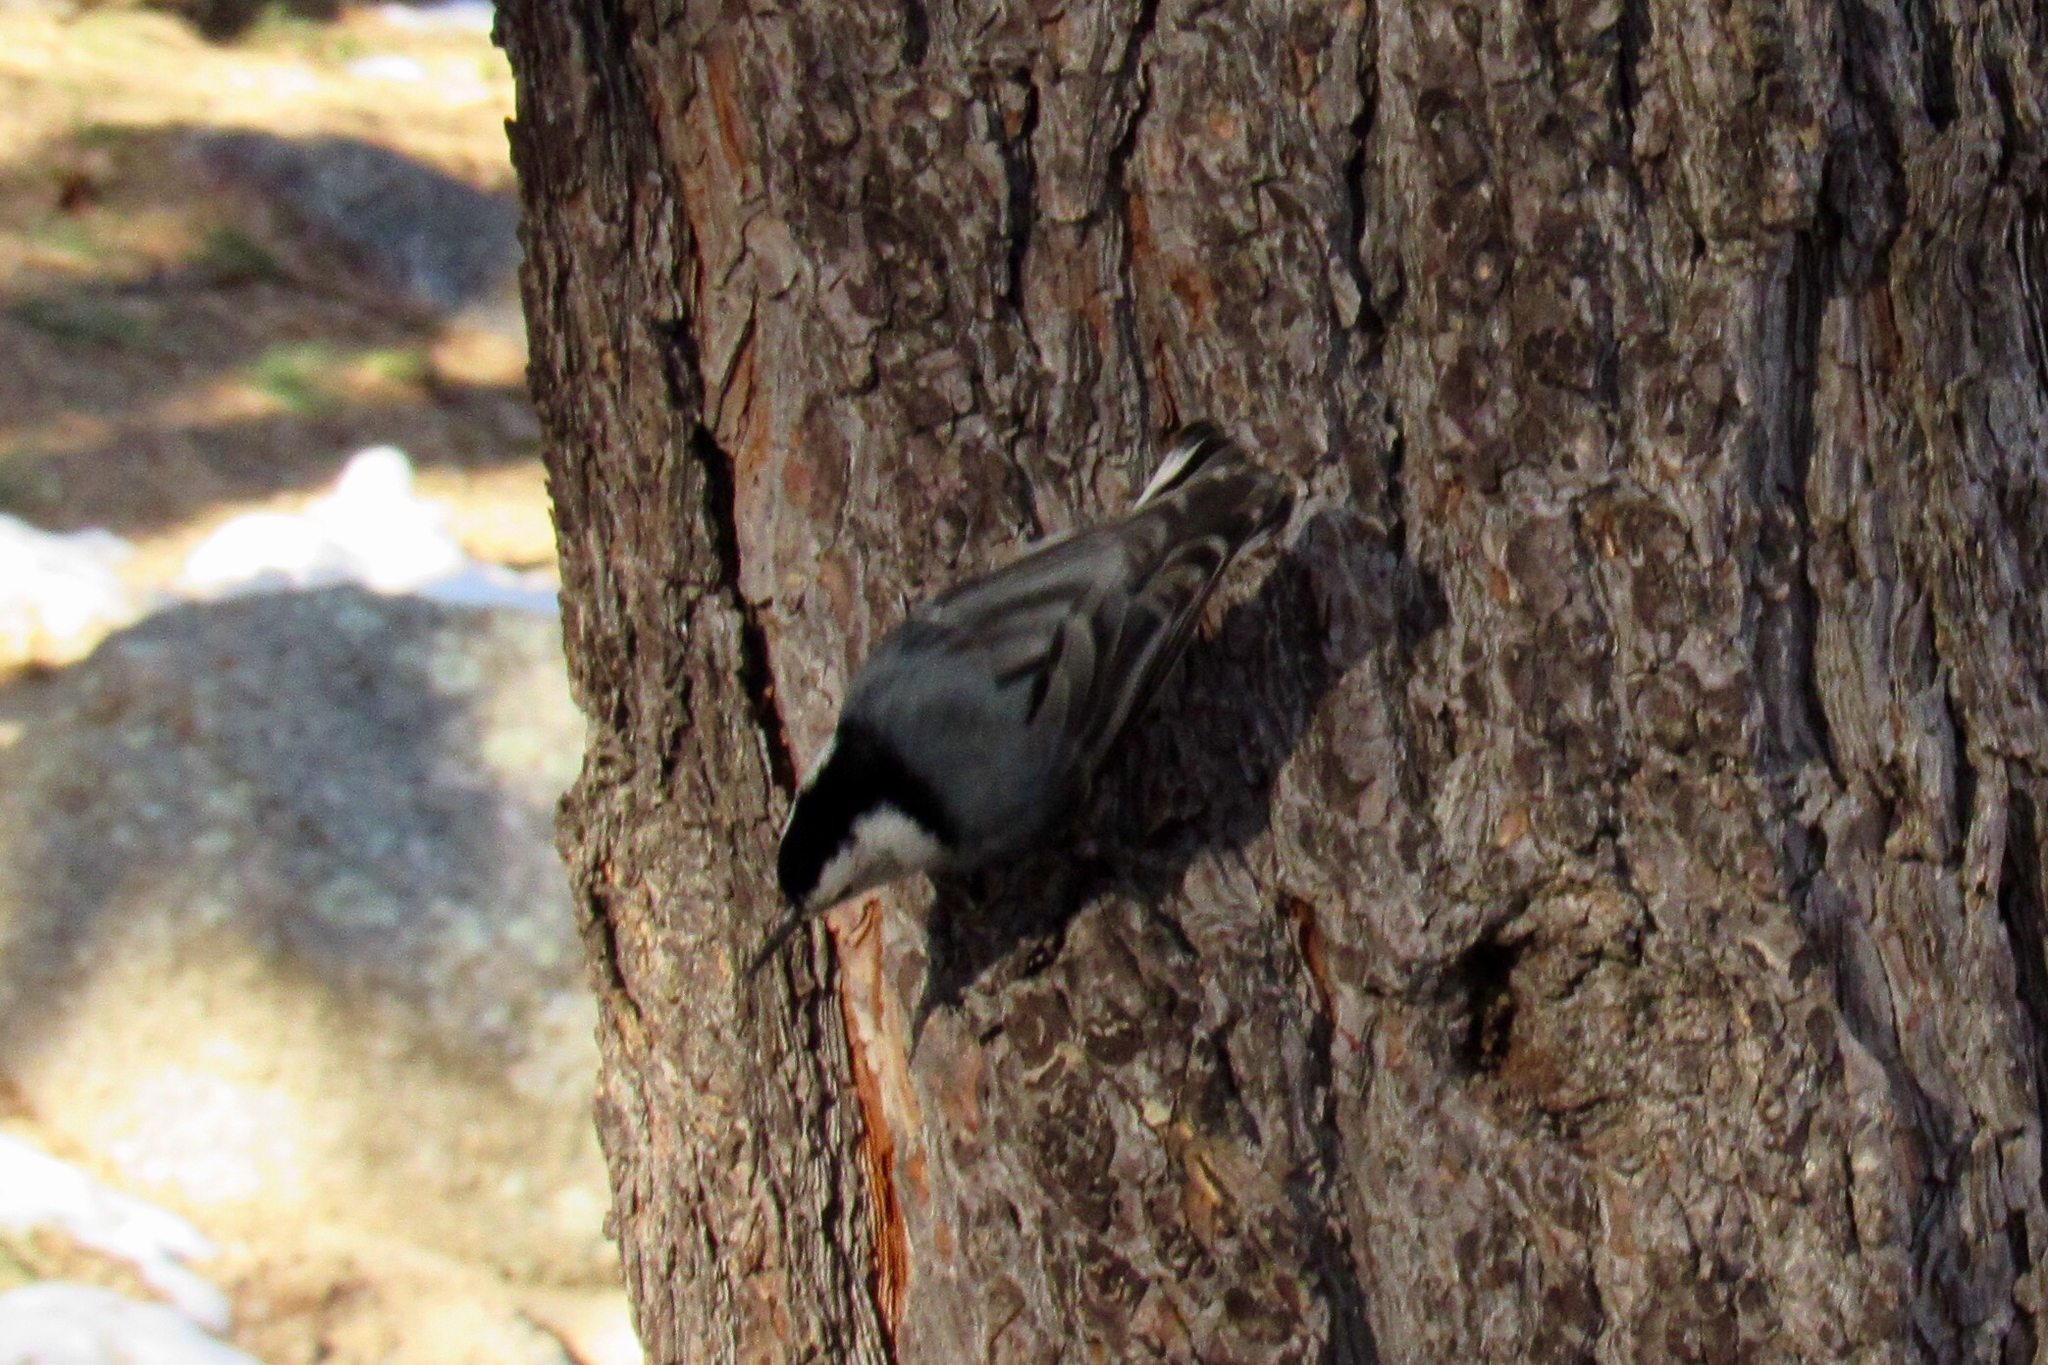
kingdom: Animalia
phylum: Chordata
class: Aves
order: Passeriformes
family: Sittidae
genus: Sitta
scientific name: Sitta carolinensis
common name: White-breasted nuthatch
